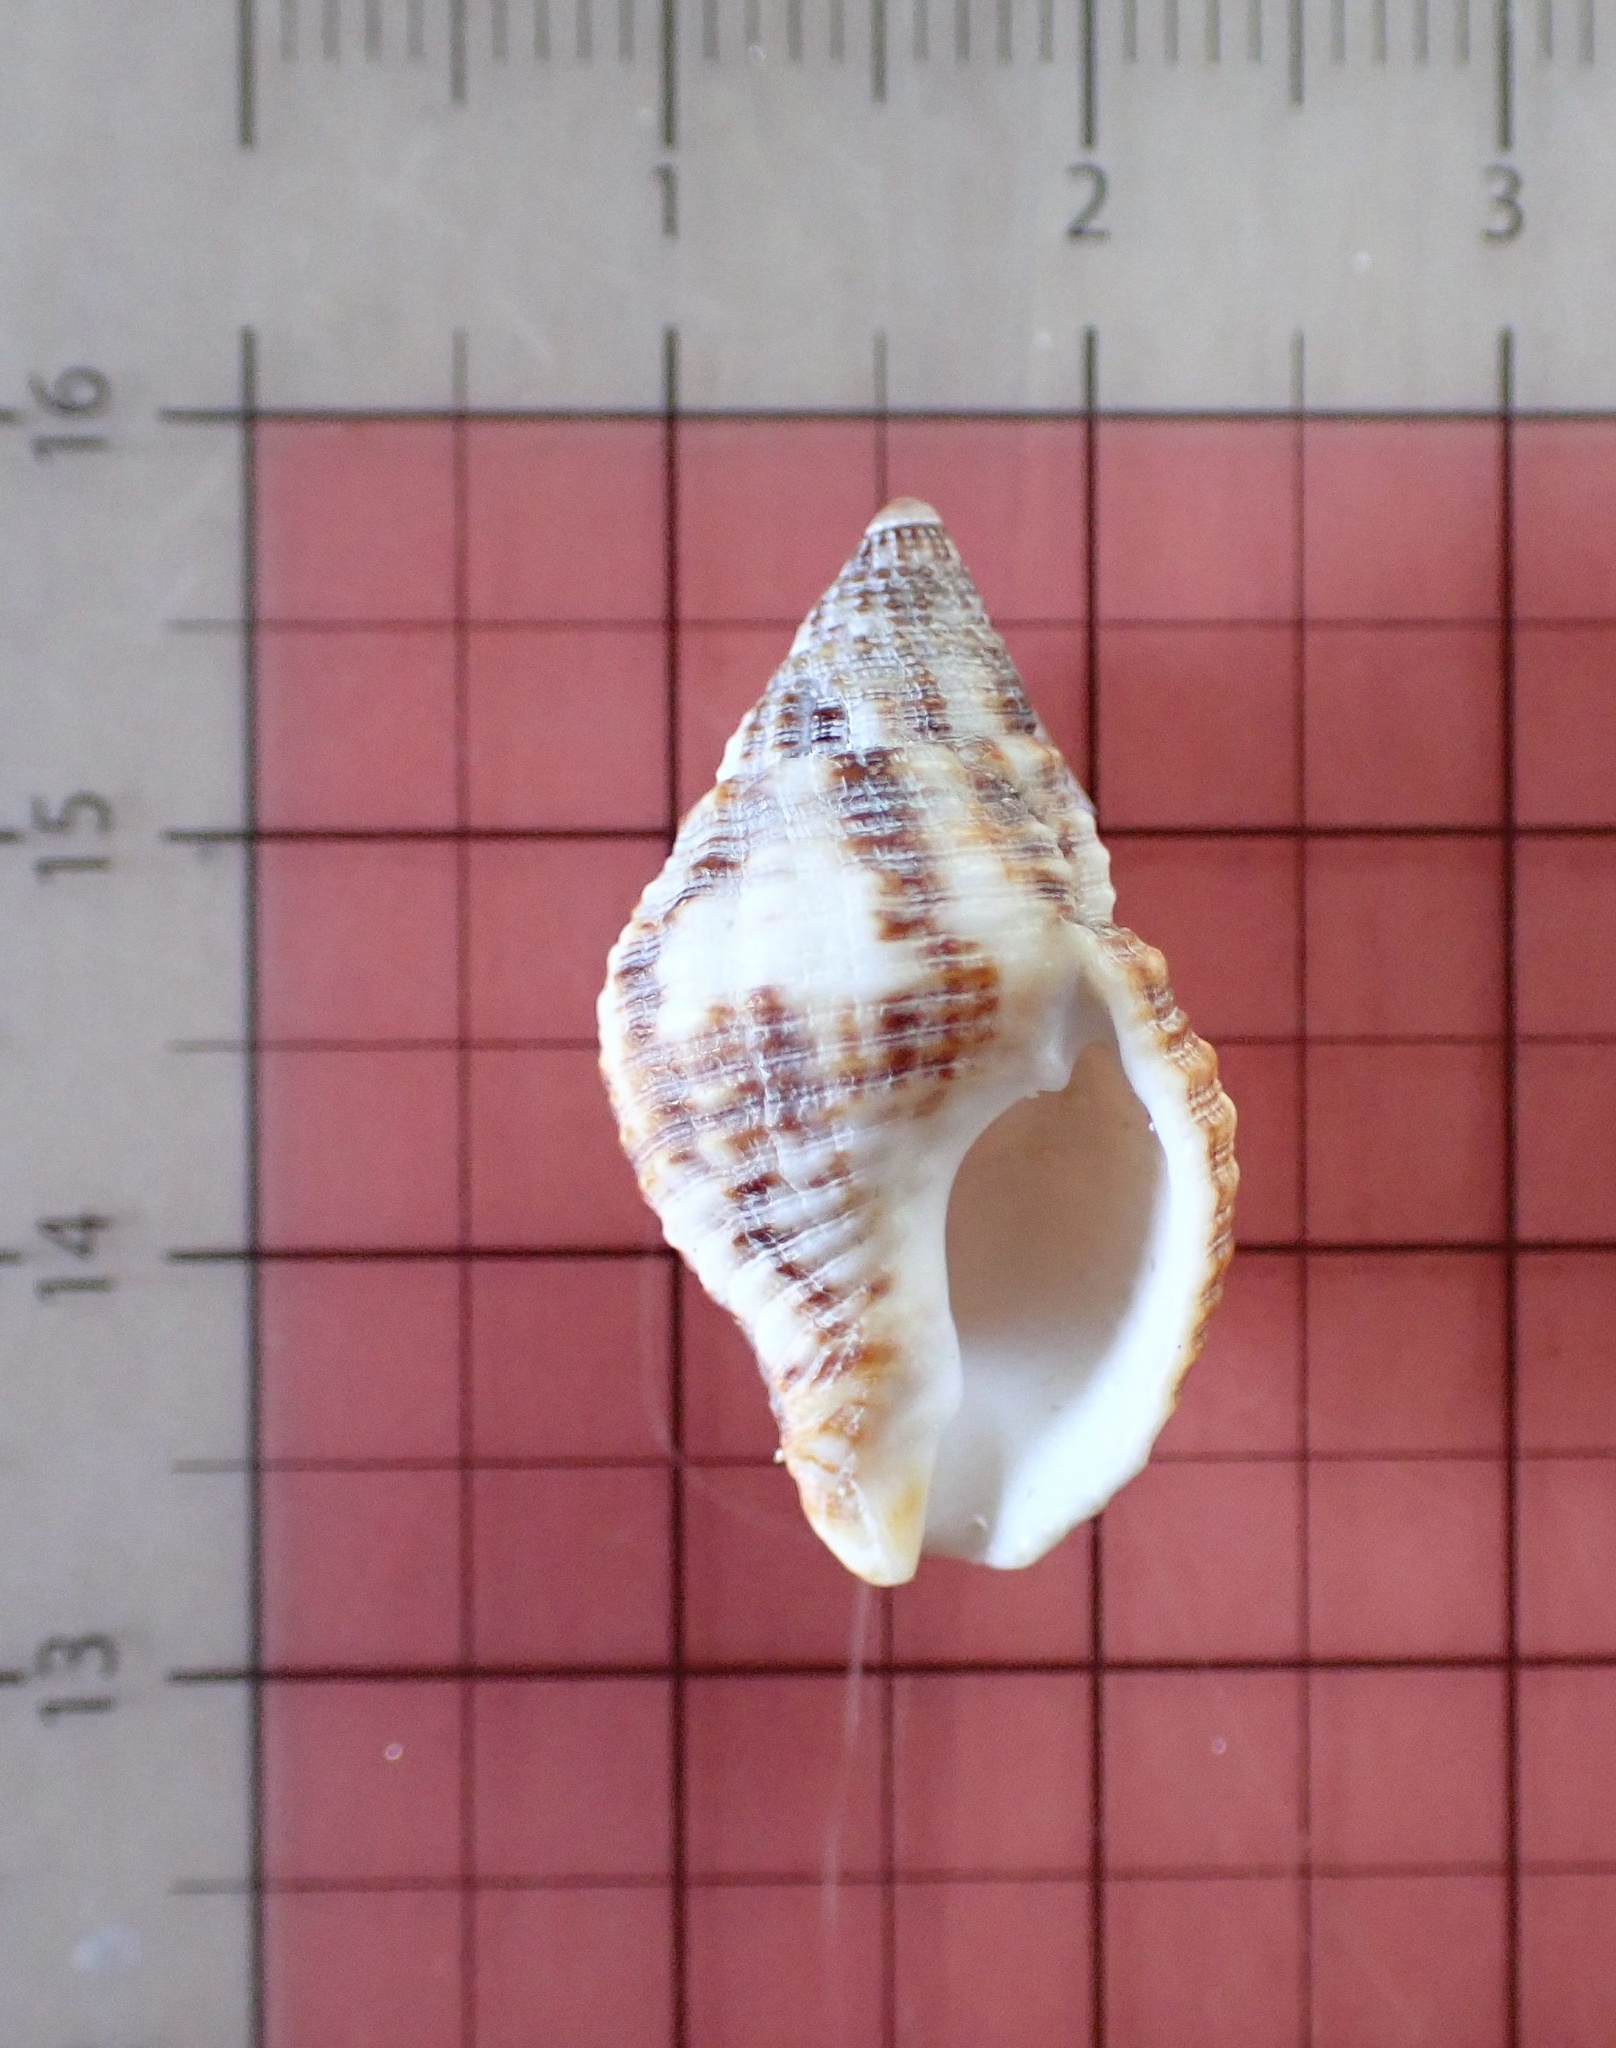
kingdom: Animalia
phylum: Mollusca
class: Gastropoda
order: Neogastropoda
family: Pisaniidae
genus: Gemophos
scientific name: Gemophos tinctus
